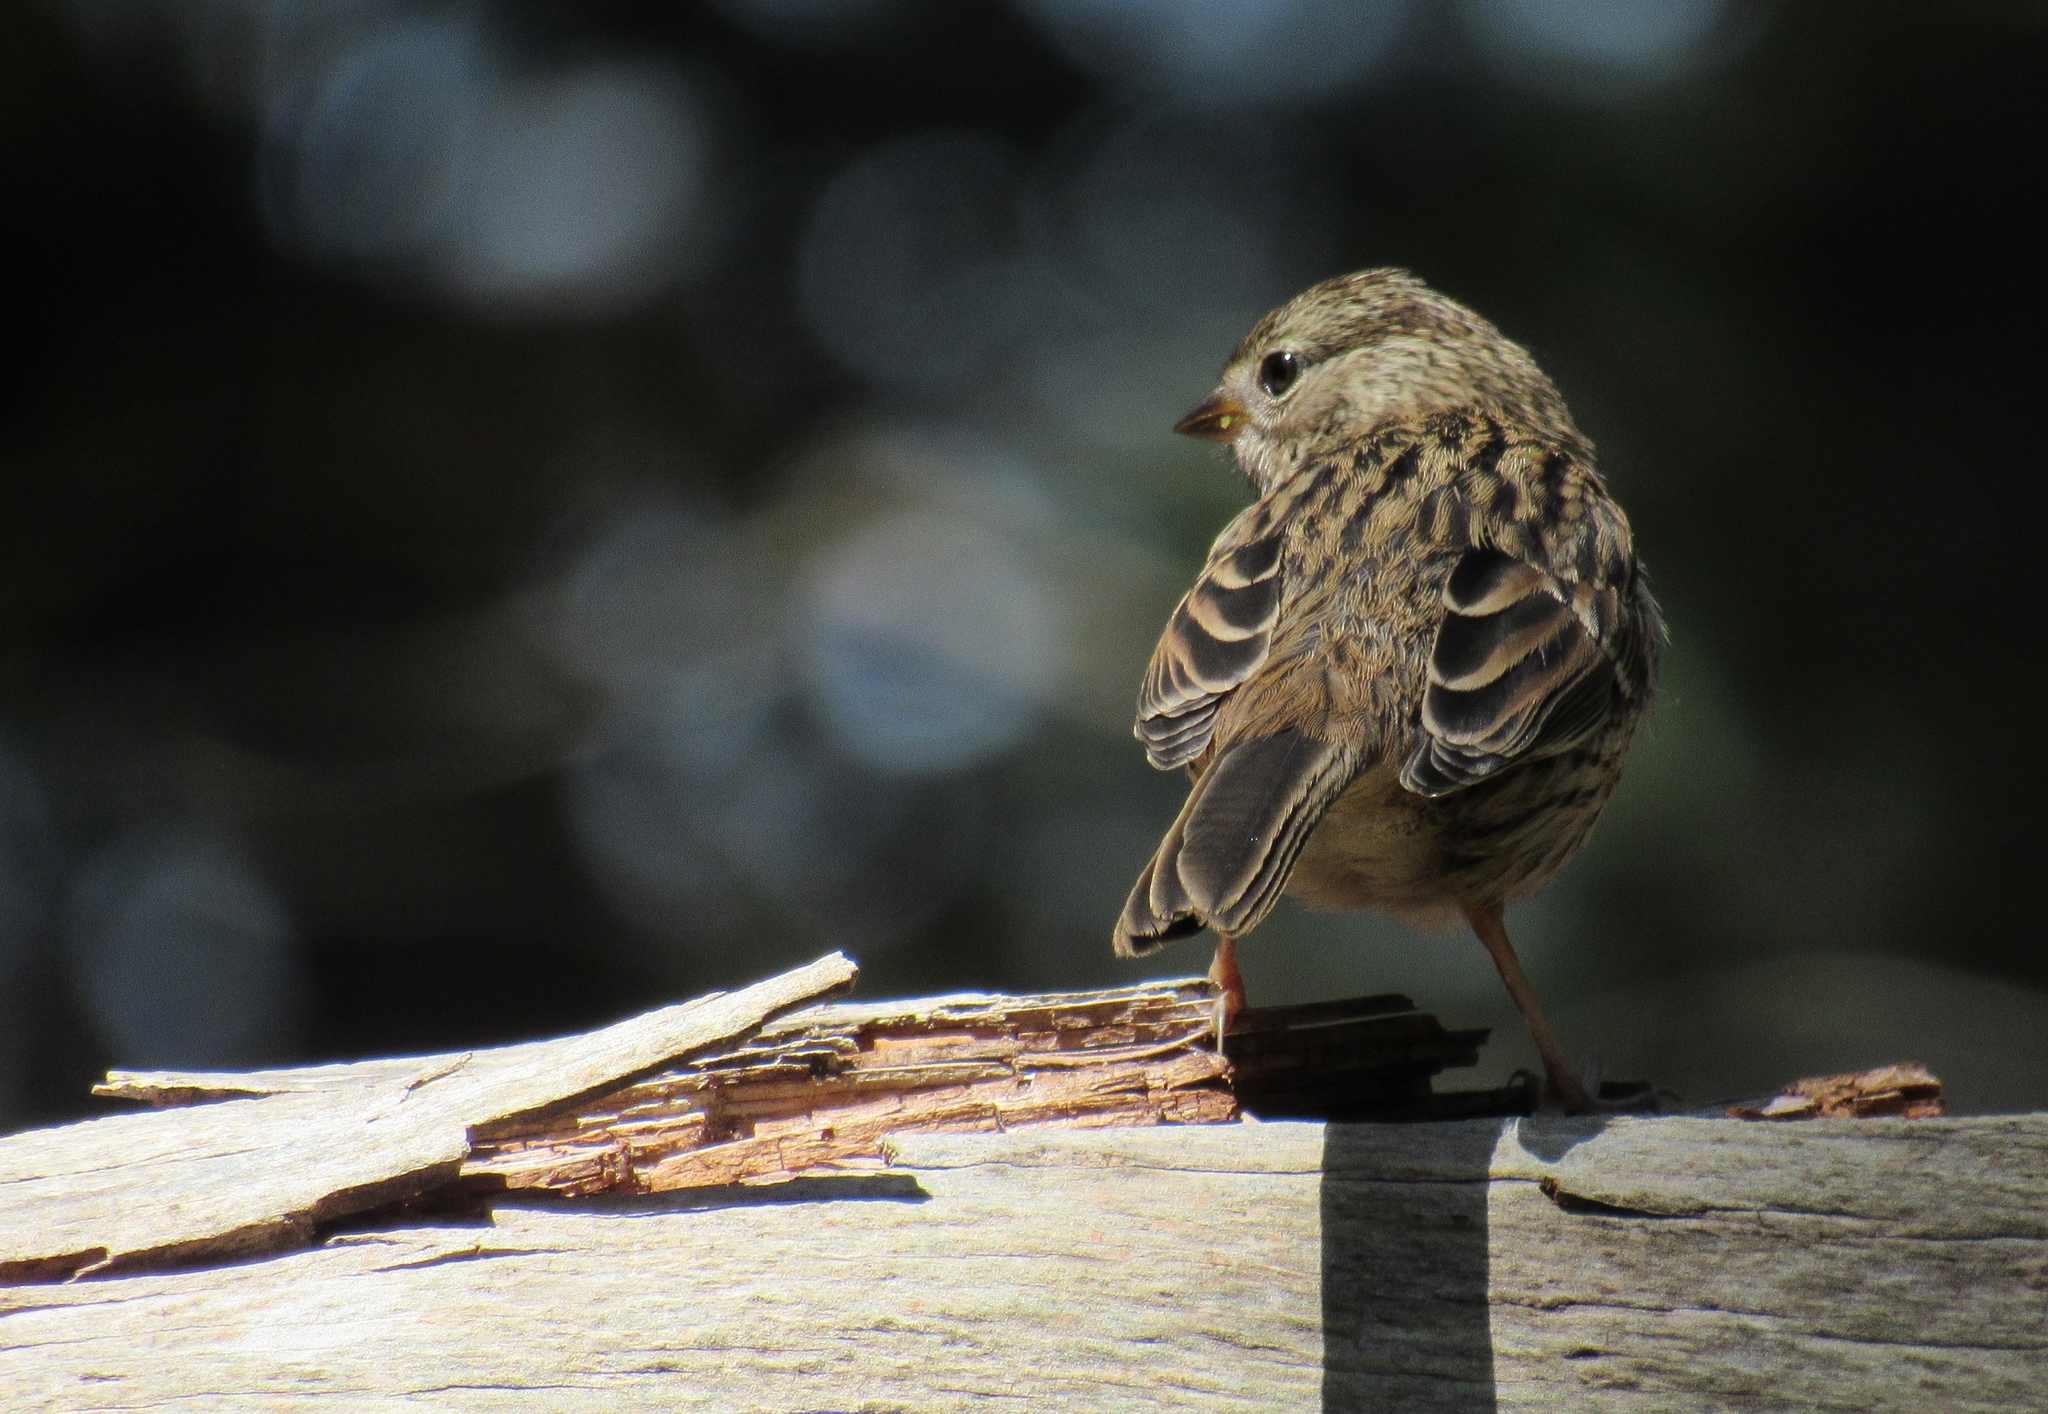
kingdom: Animalia
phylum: Chordata
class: Aves
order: Passeriformes
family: Passerellidae
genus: Zonotrichia
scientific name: Zonotrichia leucophrys
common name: White-crowned sparrow
